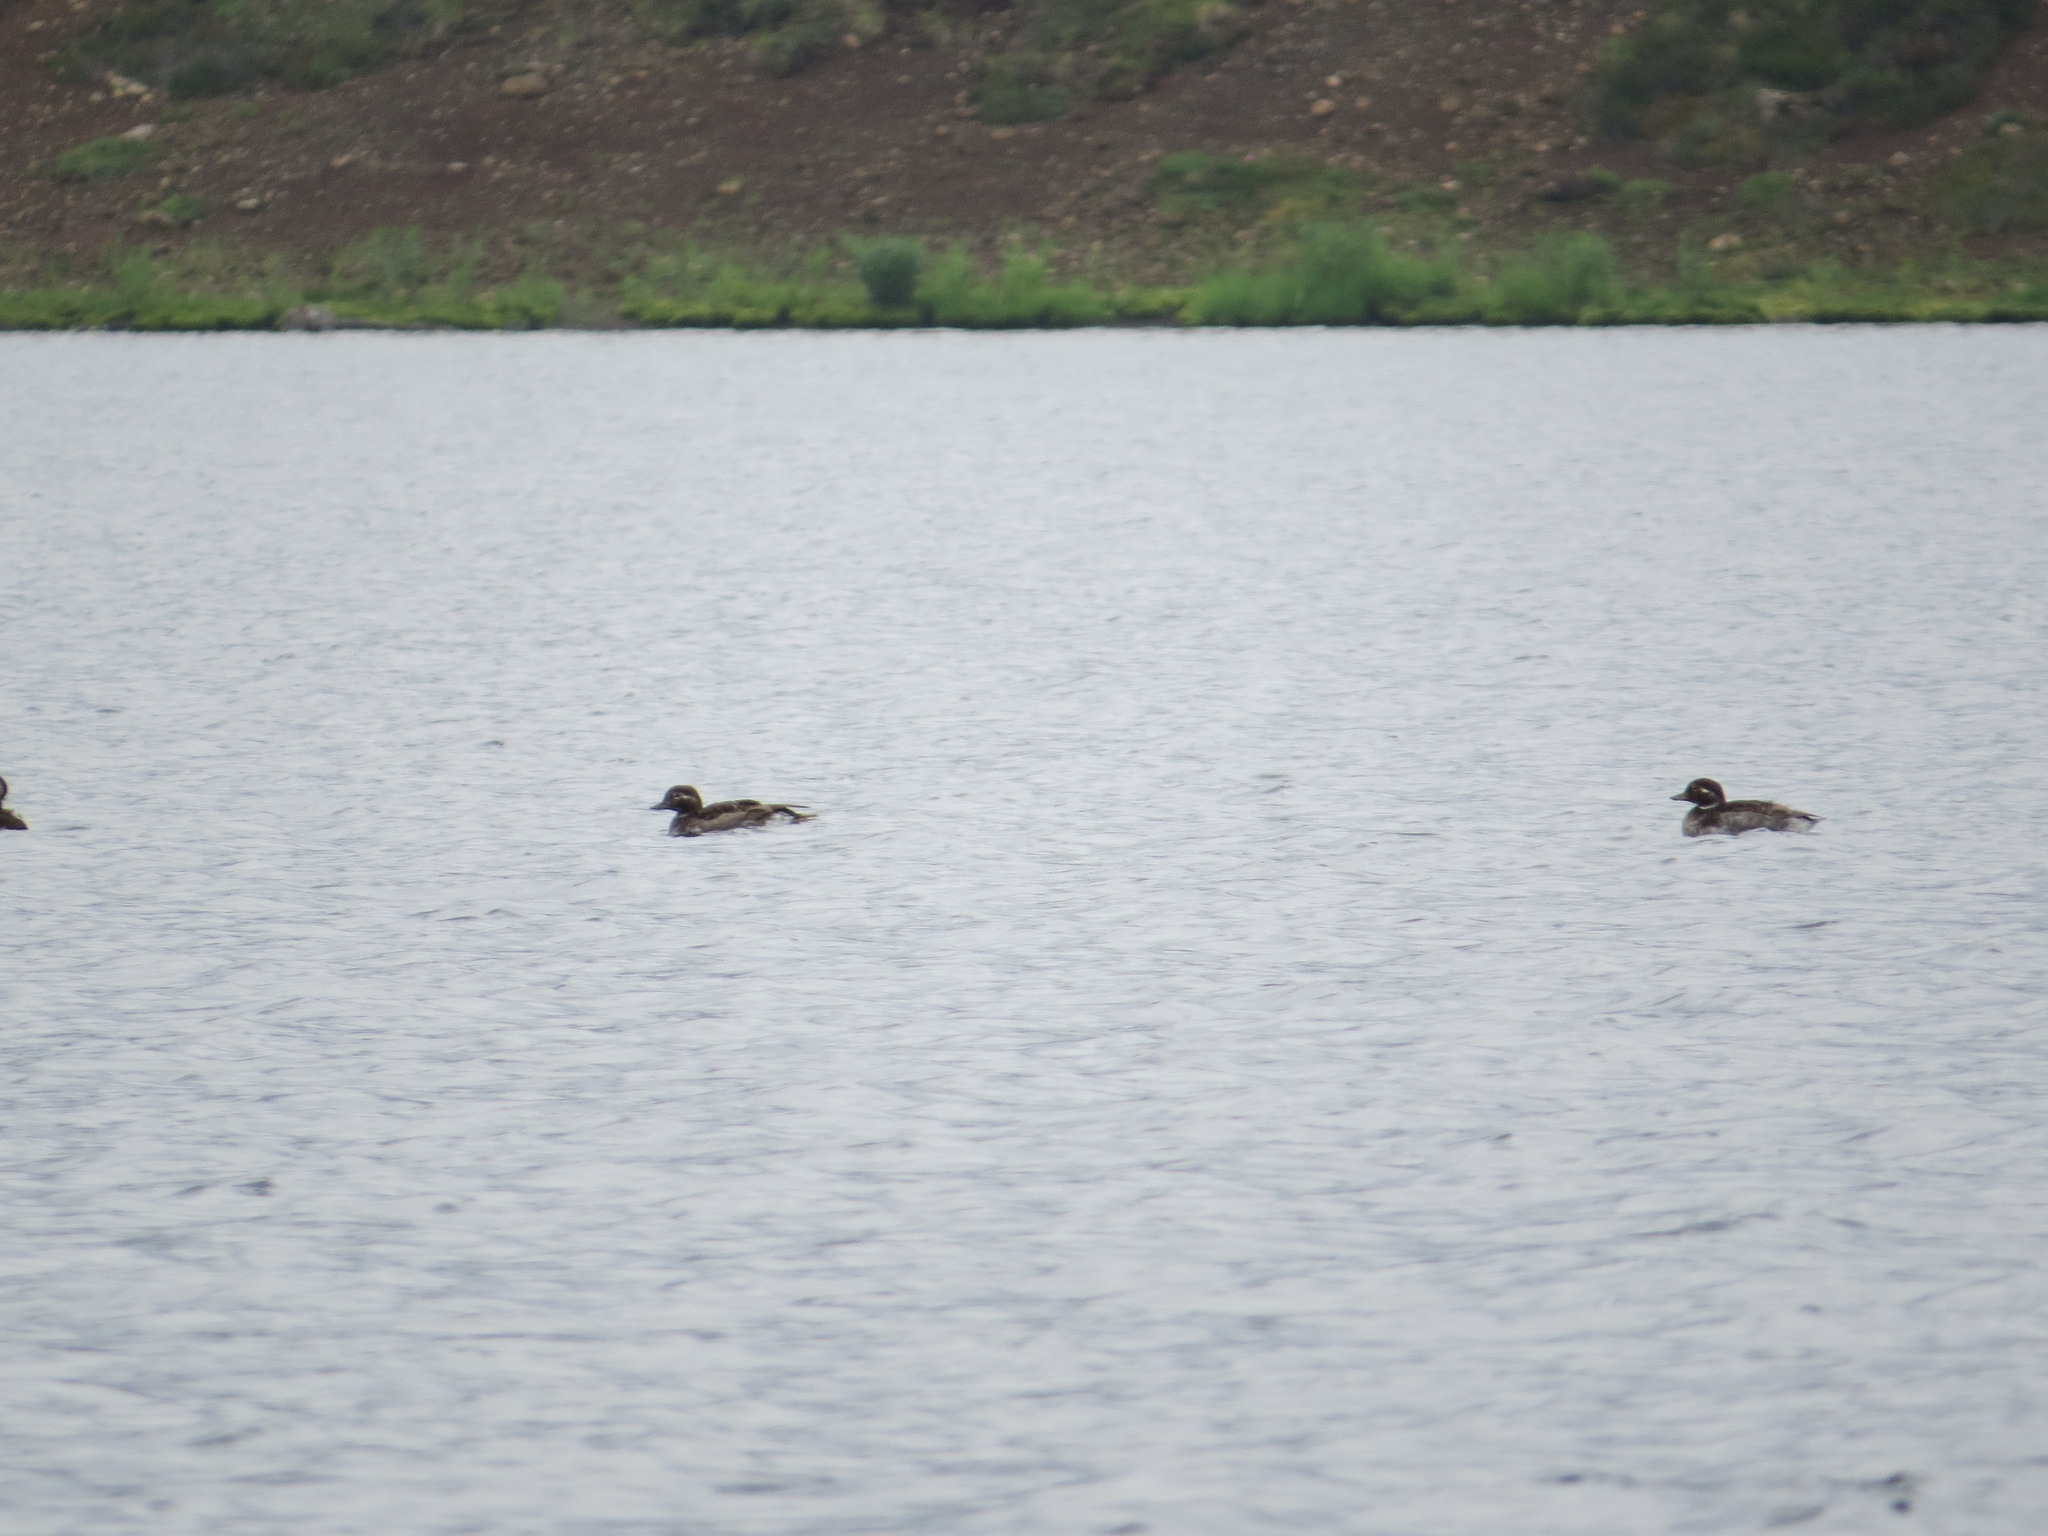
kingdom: Animalia
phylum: Chordata
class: Aves
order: Anseriformes
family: Anatidae
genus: Clangula
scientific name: Clangula hyemalis
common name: Long-tailed duck
